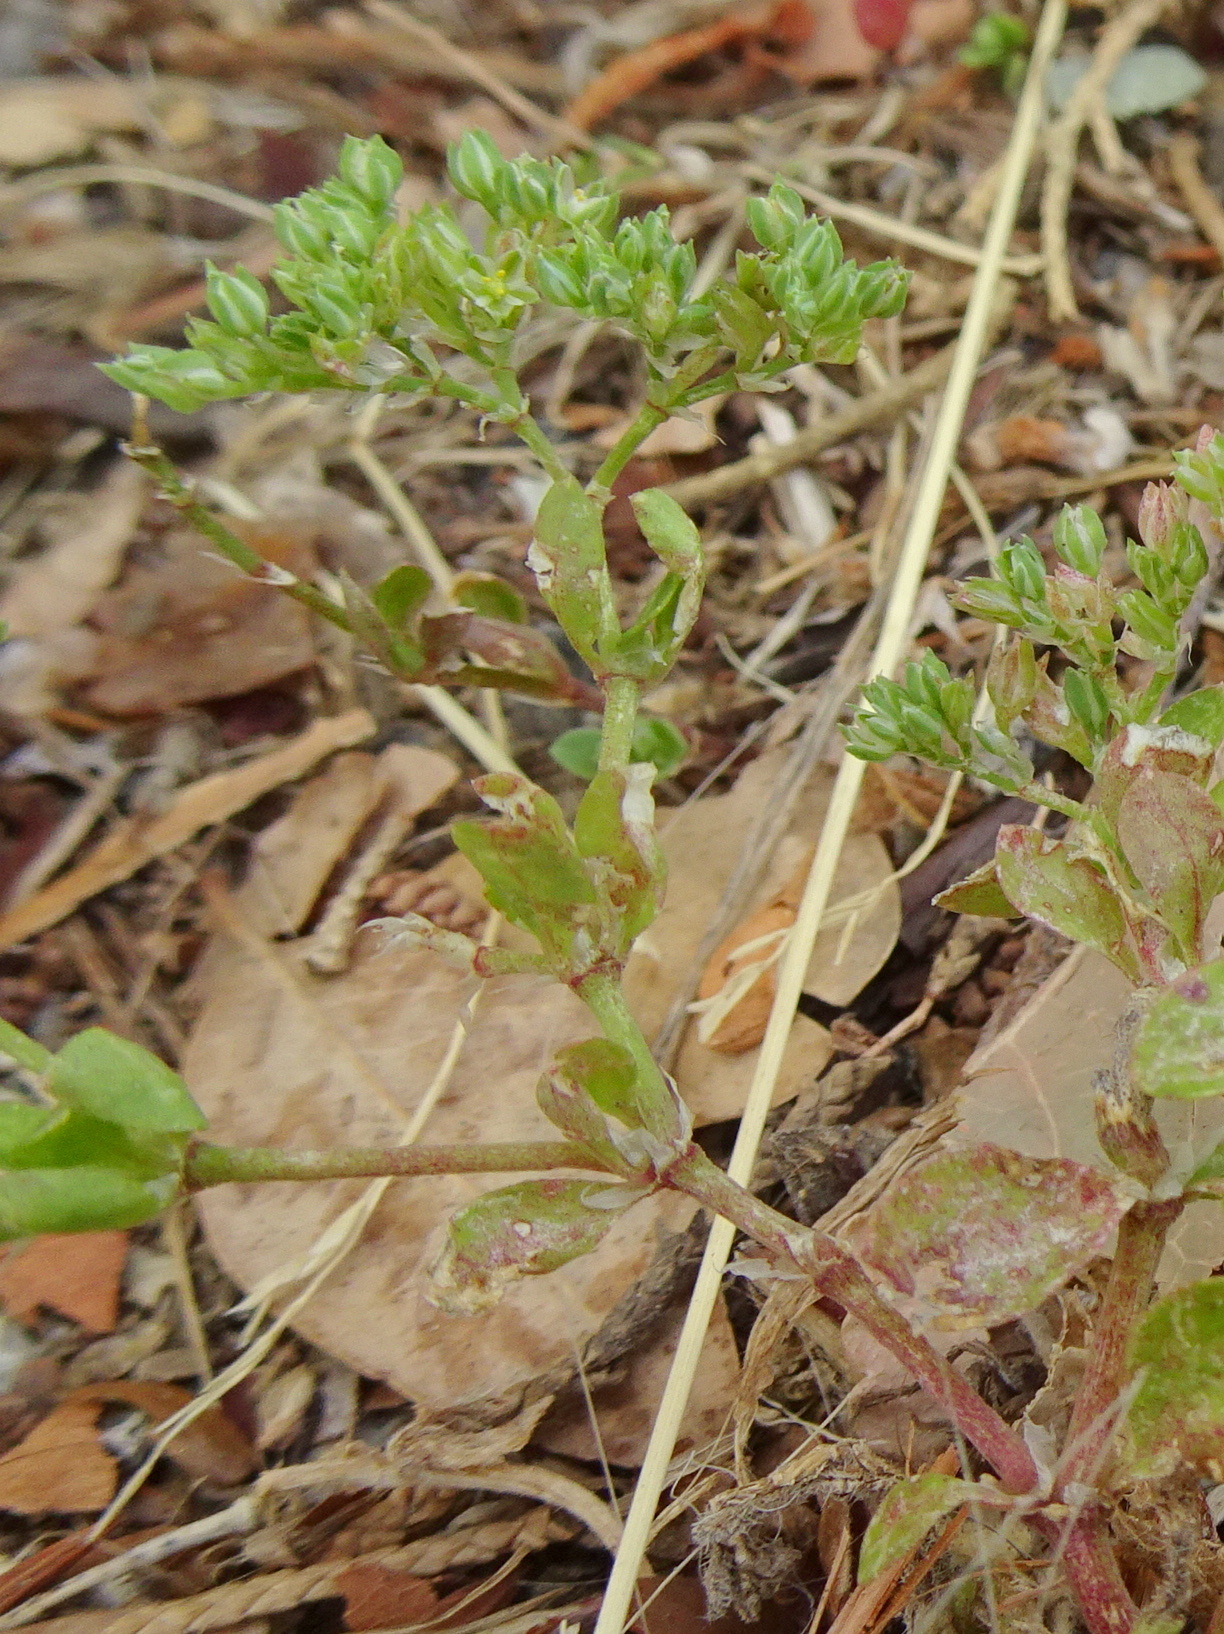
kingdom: Plantae
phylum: Tracheophyta
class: Magnoliopsida
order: Caryophyllales
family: Caryophyllaceae
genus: Polycarpon
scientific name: Polycarpon tetraphyllum
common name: Four-leaved all-seed
